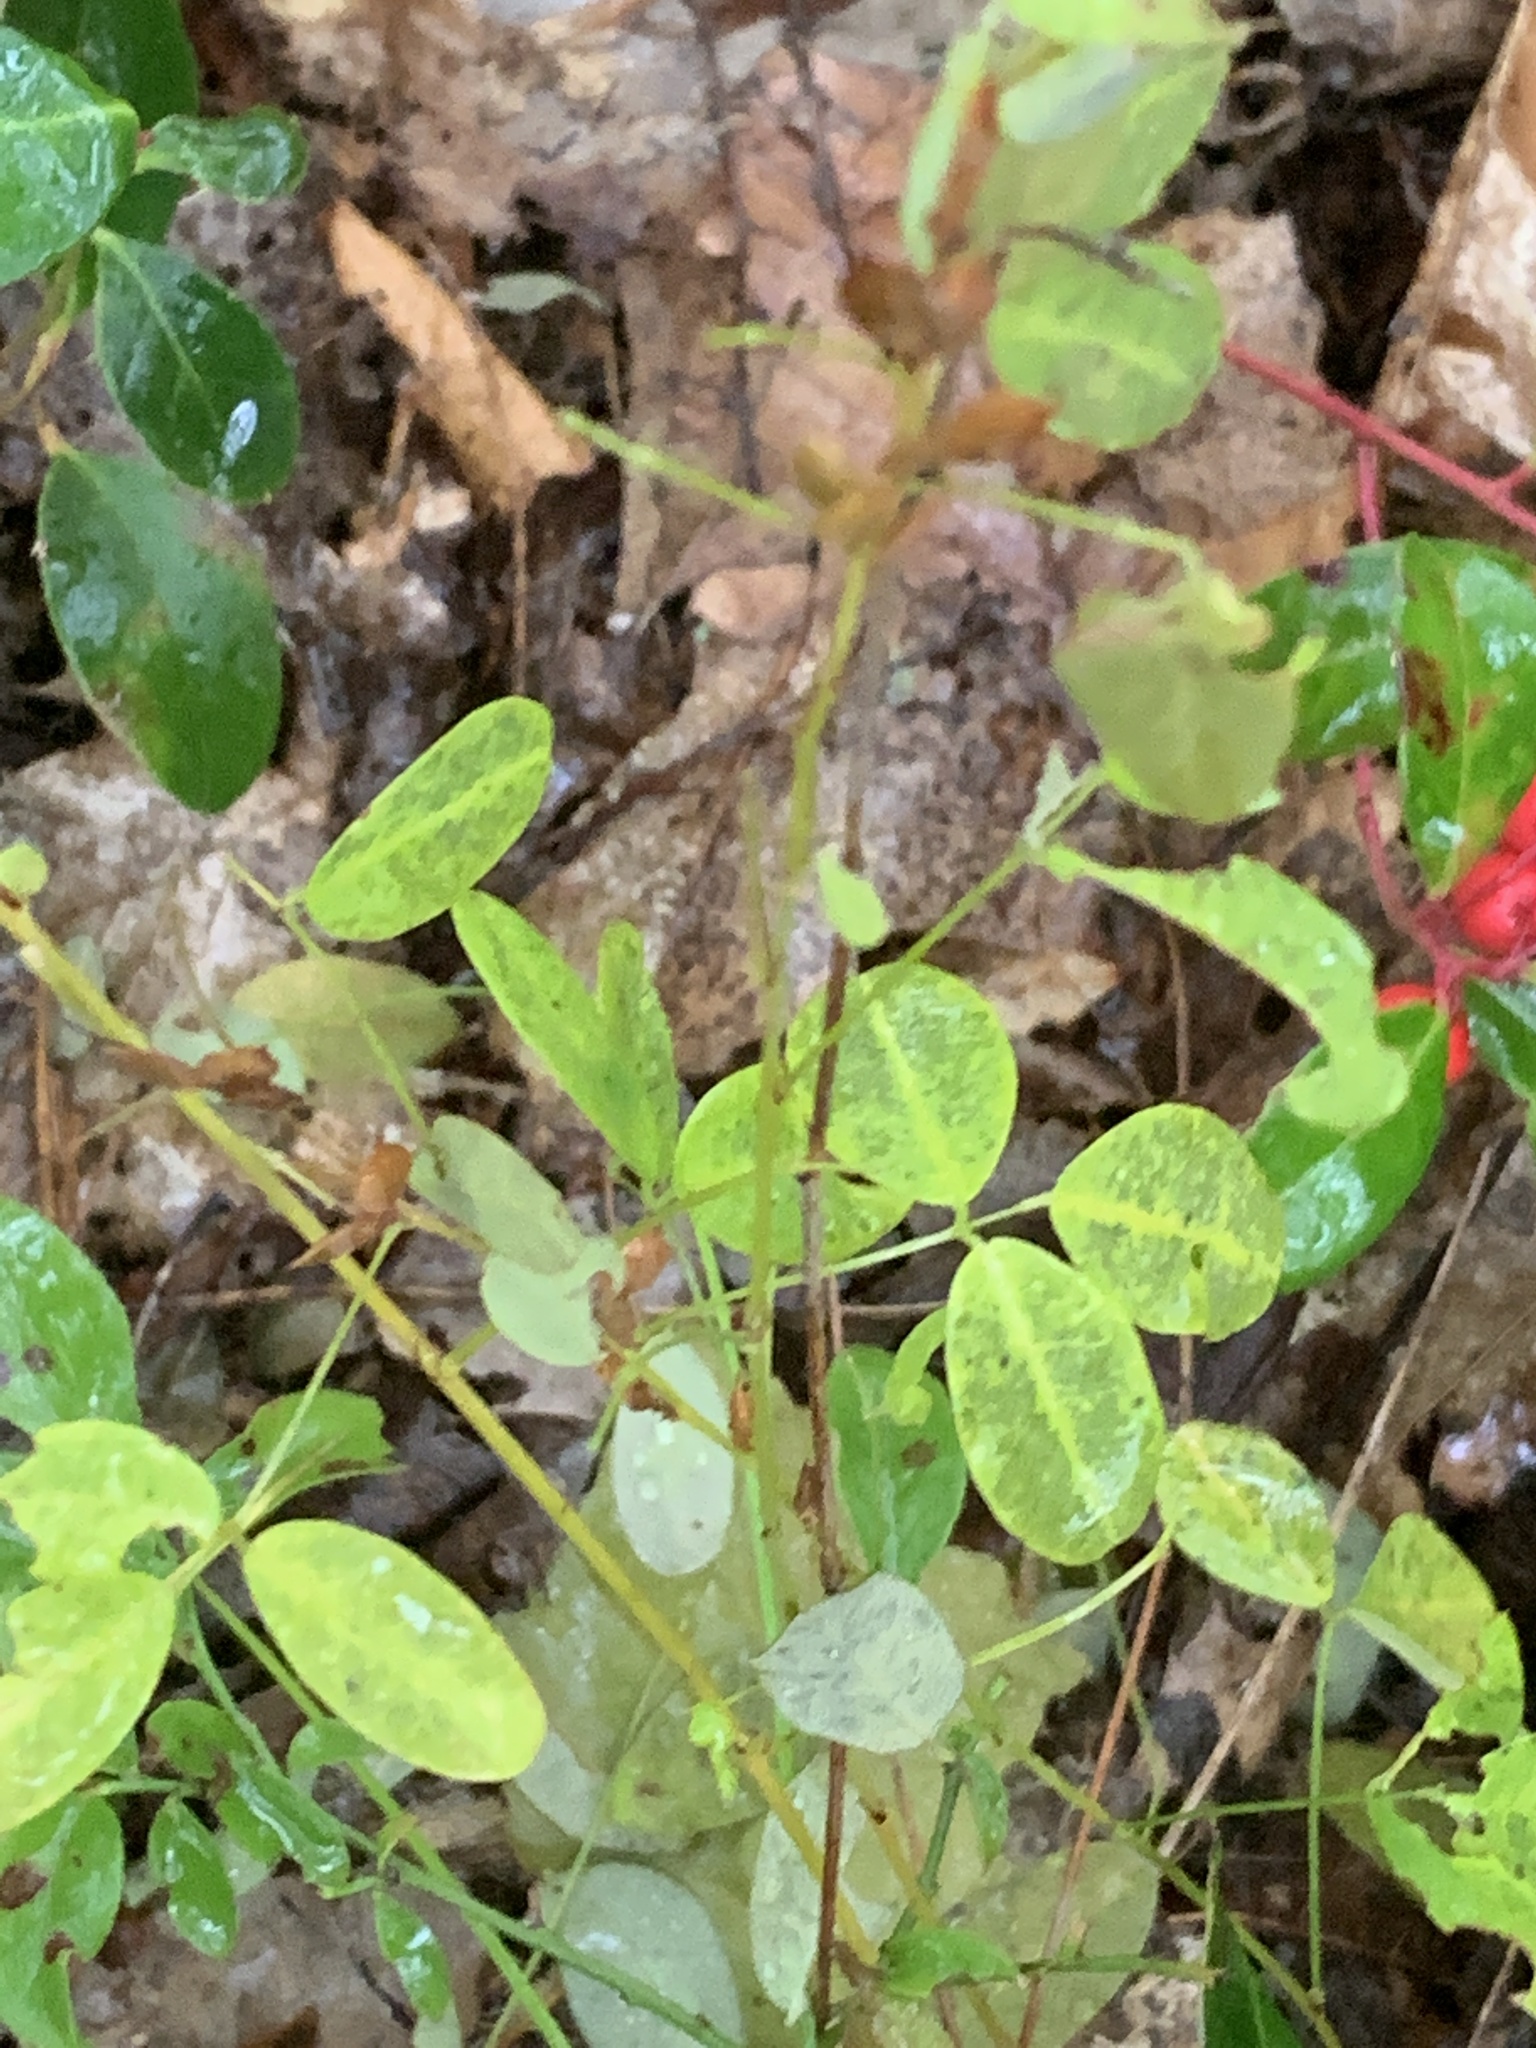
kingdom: Plantae
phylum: Tracheophyta
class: Magnoliopsida
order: Fabales
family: Fabaceae
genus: Lespedeza
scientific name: Lespedeza violacea
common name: Wand bush-clover
